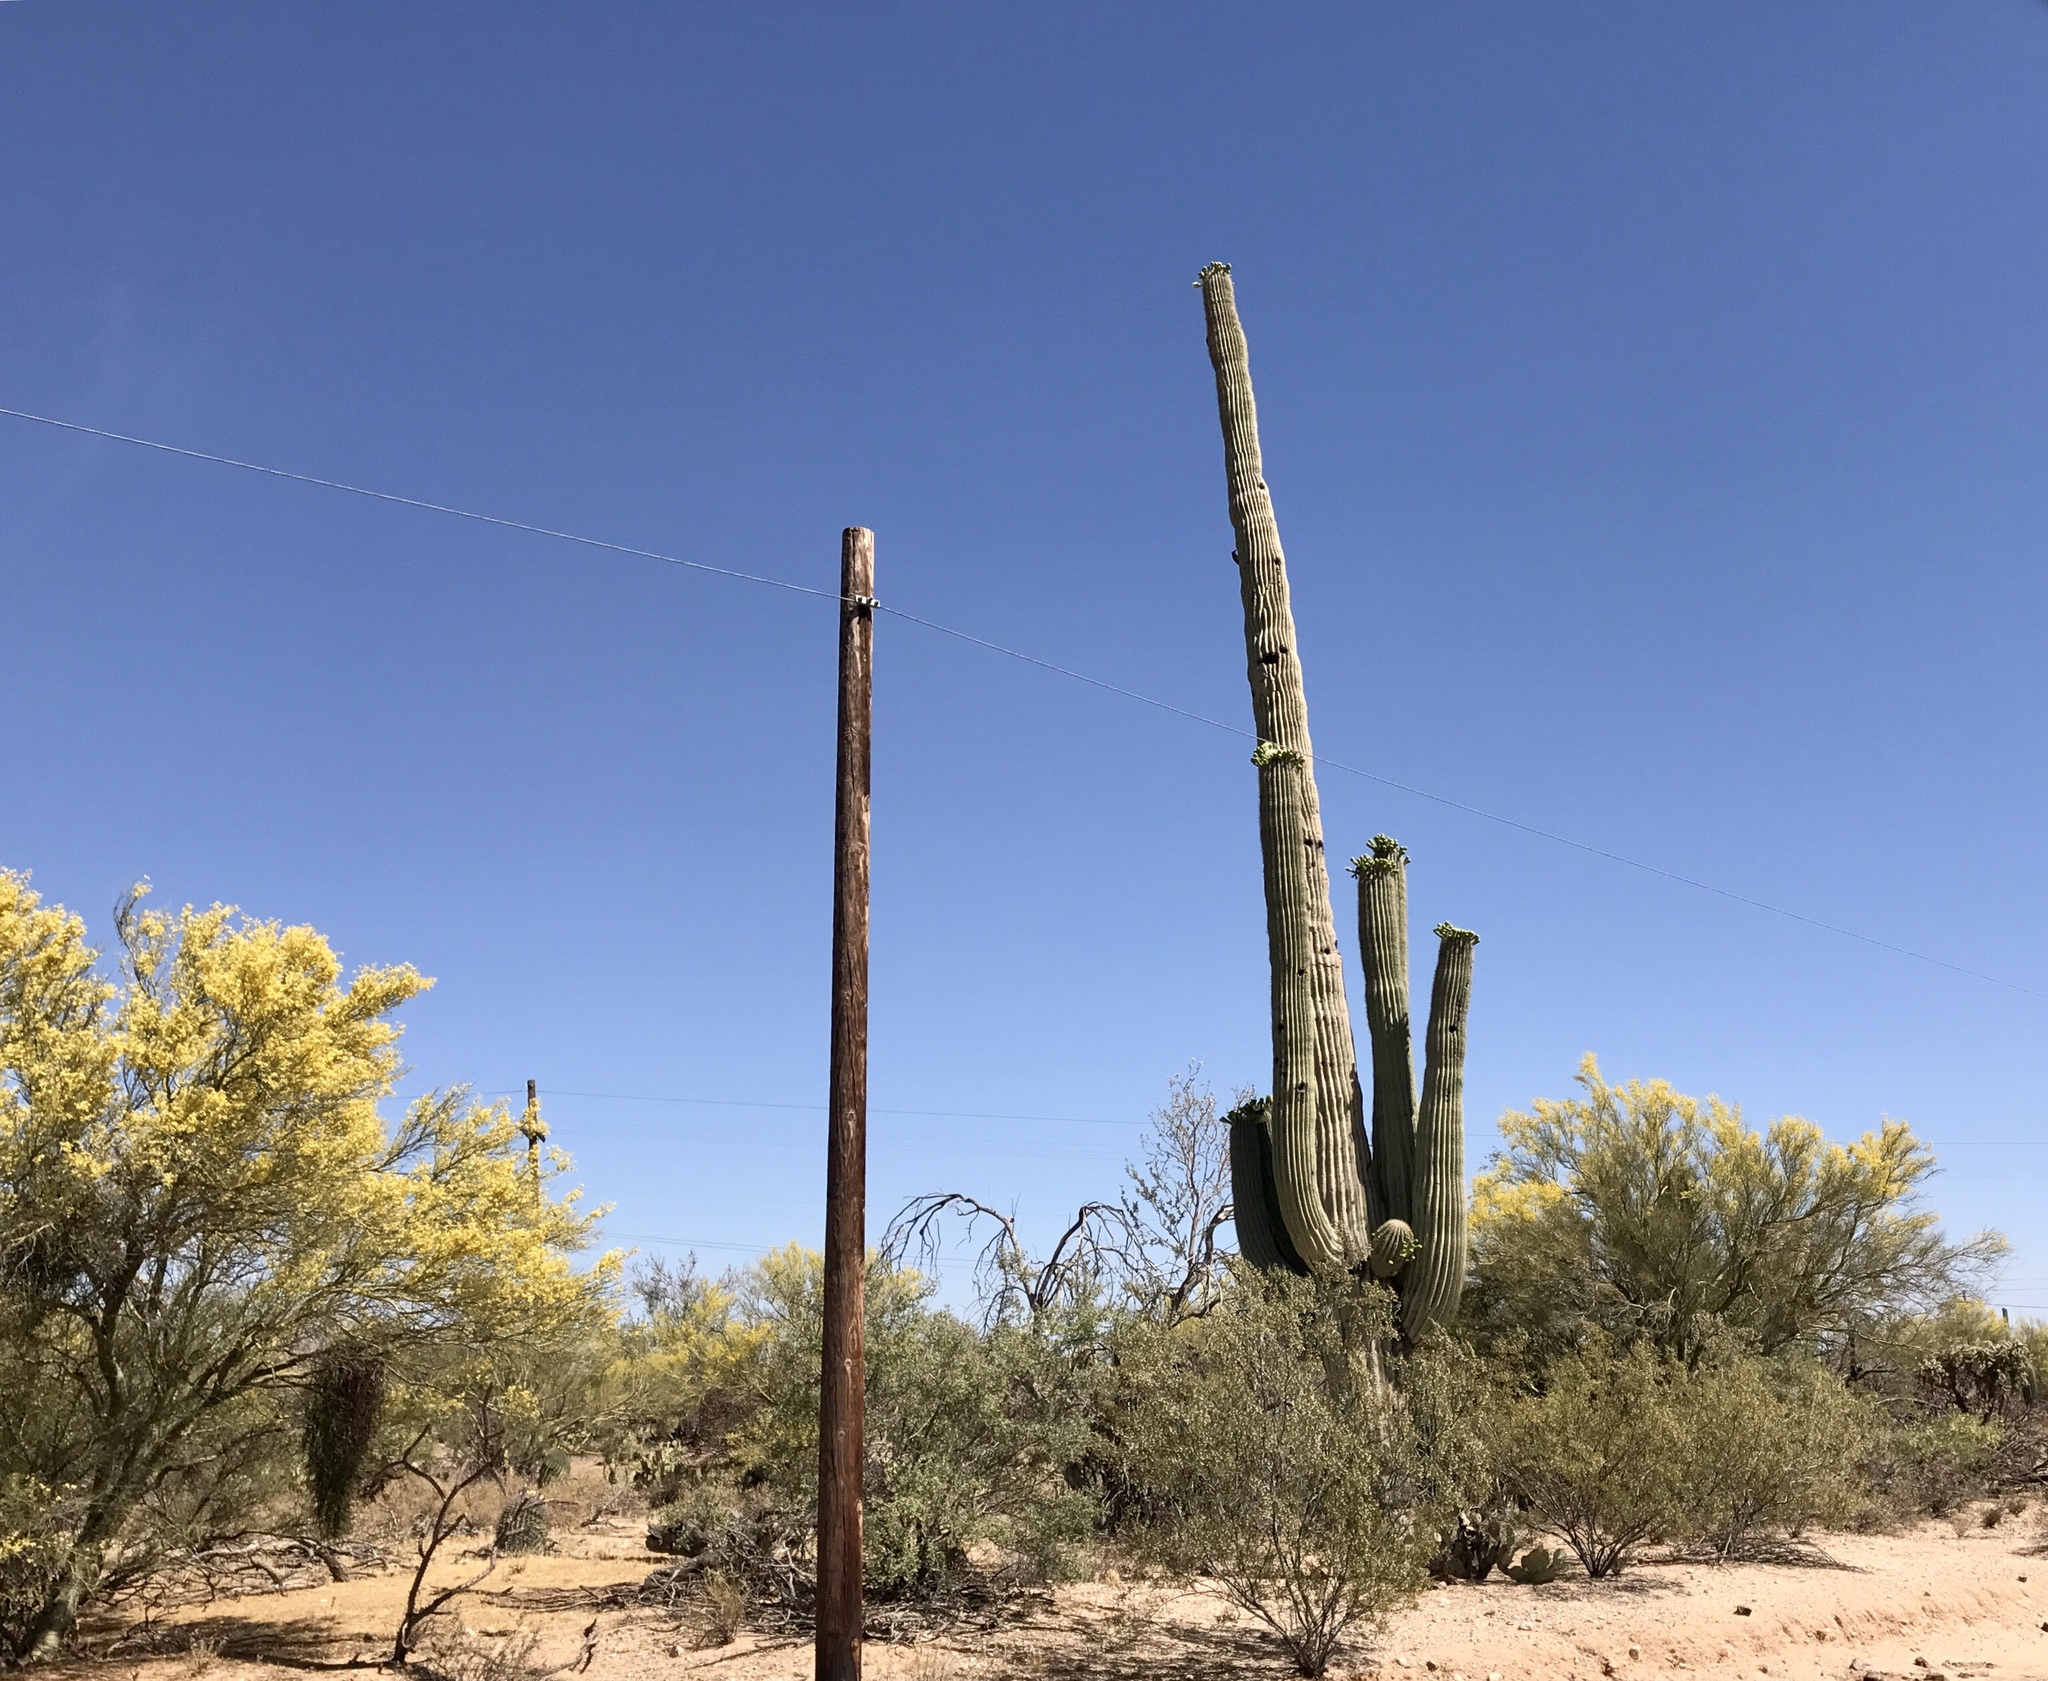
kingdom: Plantae
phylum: Tracheophyta
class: Magnoliopsida
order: Caryophyllales
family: Cactaceae
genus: Carnegiea
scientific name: Carnegiea gigantea
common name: Saguaro
